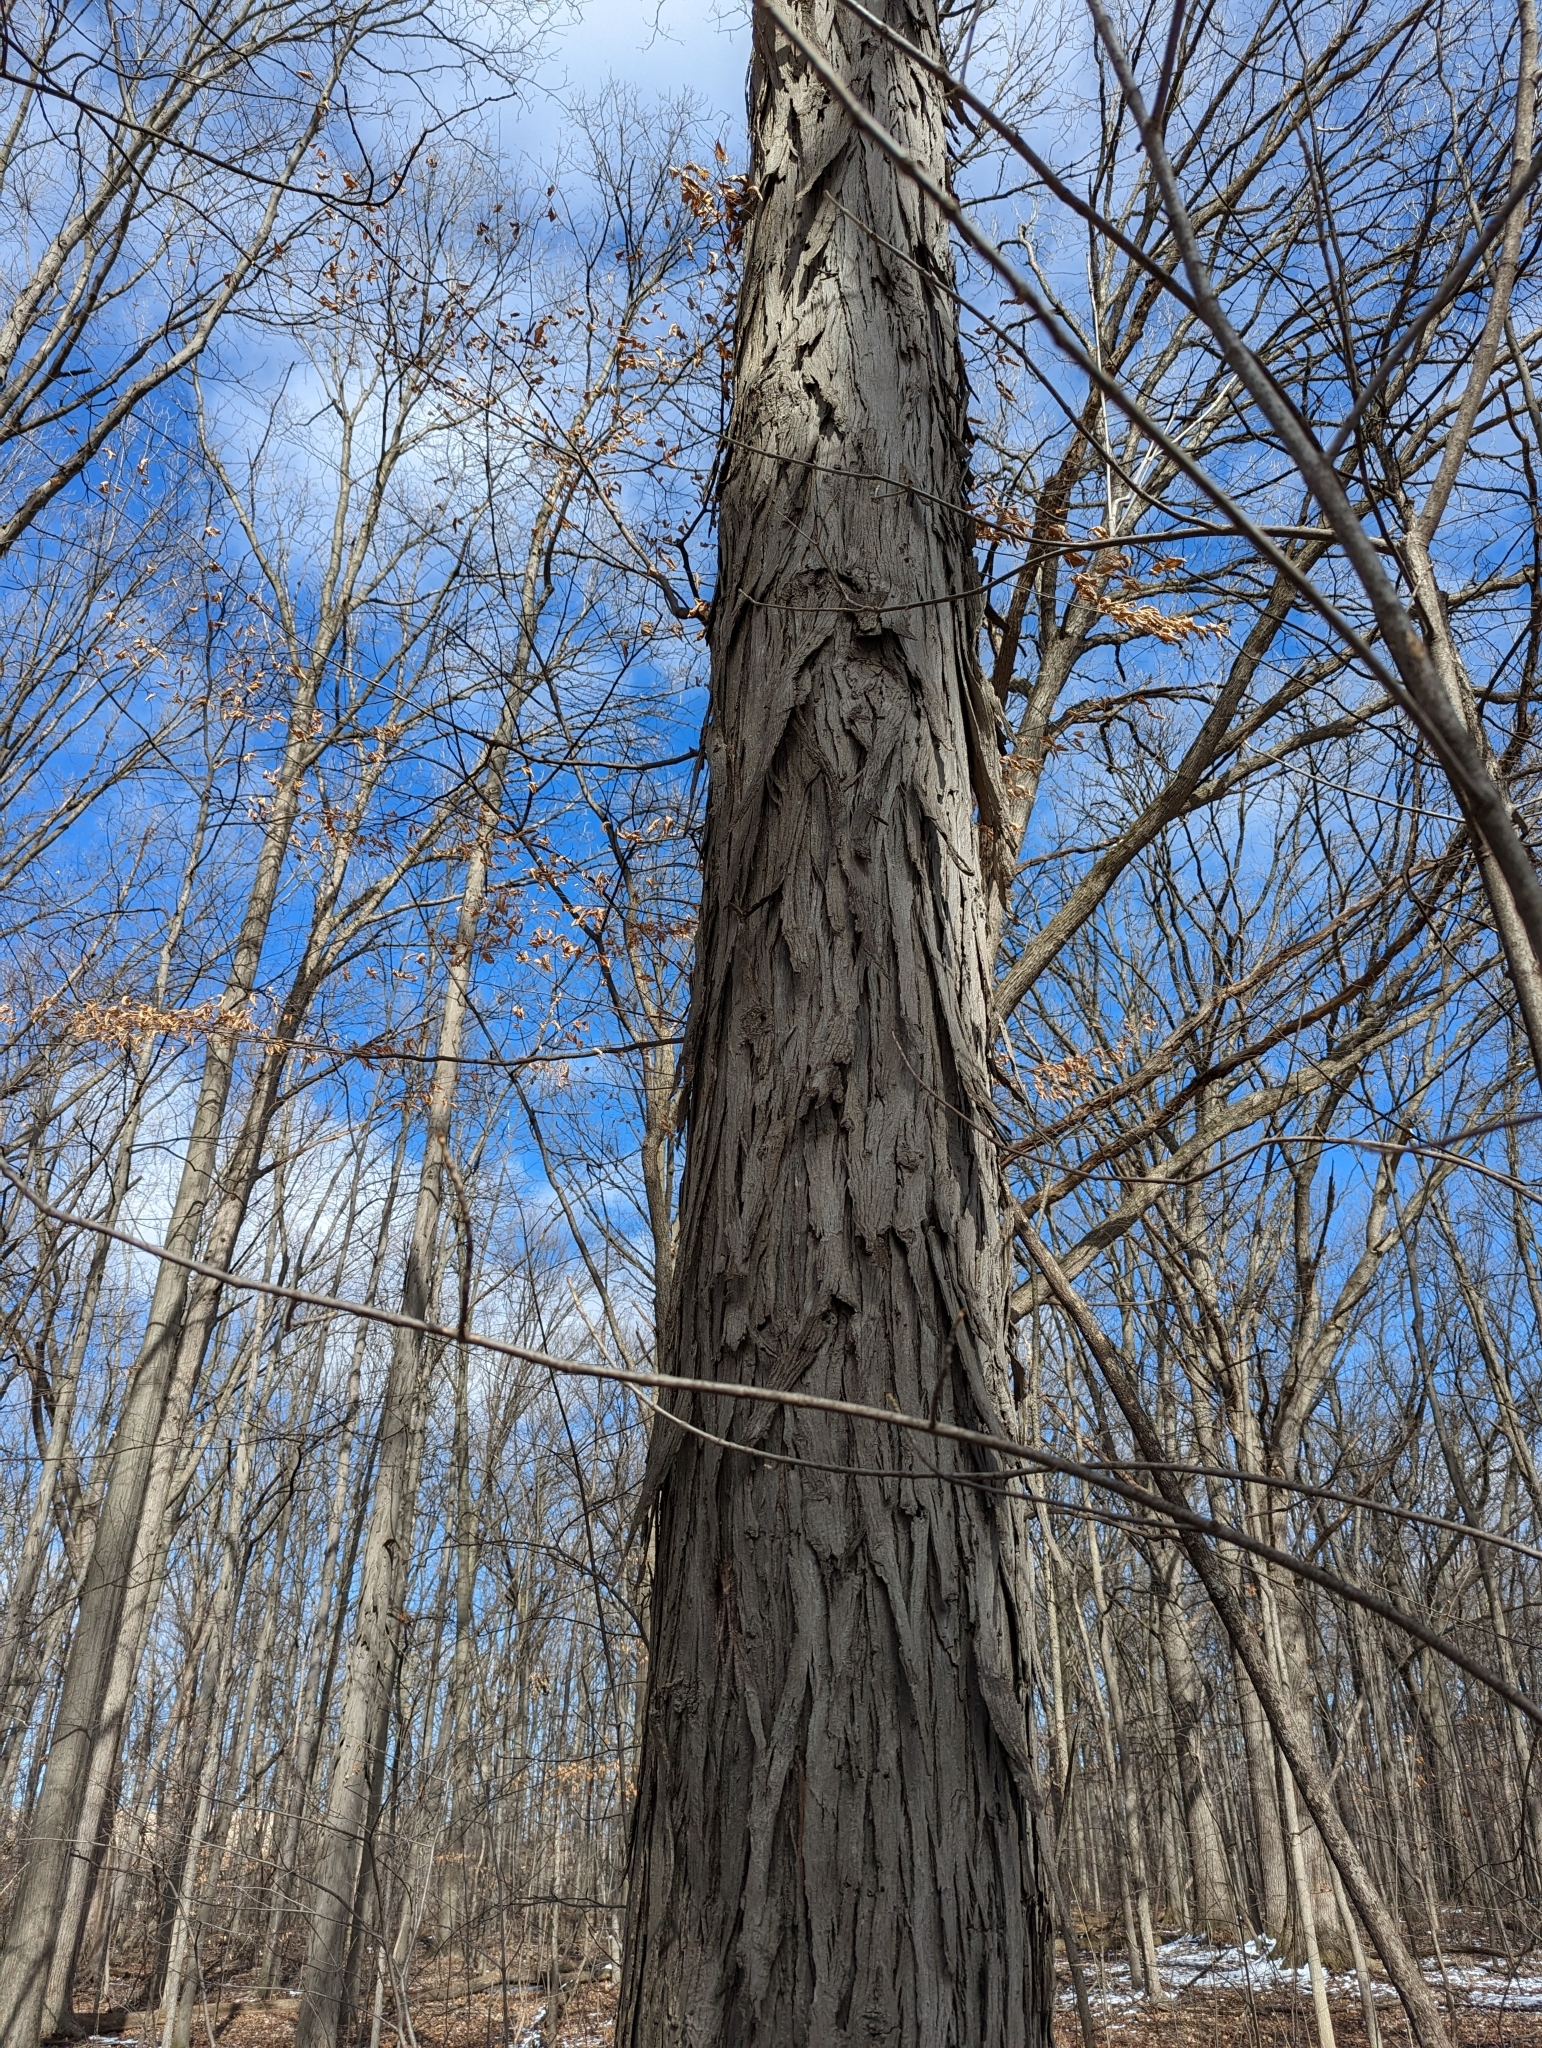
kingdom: Plantae
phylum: Tracheophyta
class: Magnoliopsida
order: Fagales
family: Juglandaceae
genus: Carya
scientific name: Carya ovata
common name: Shagbark hickory
